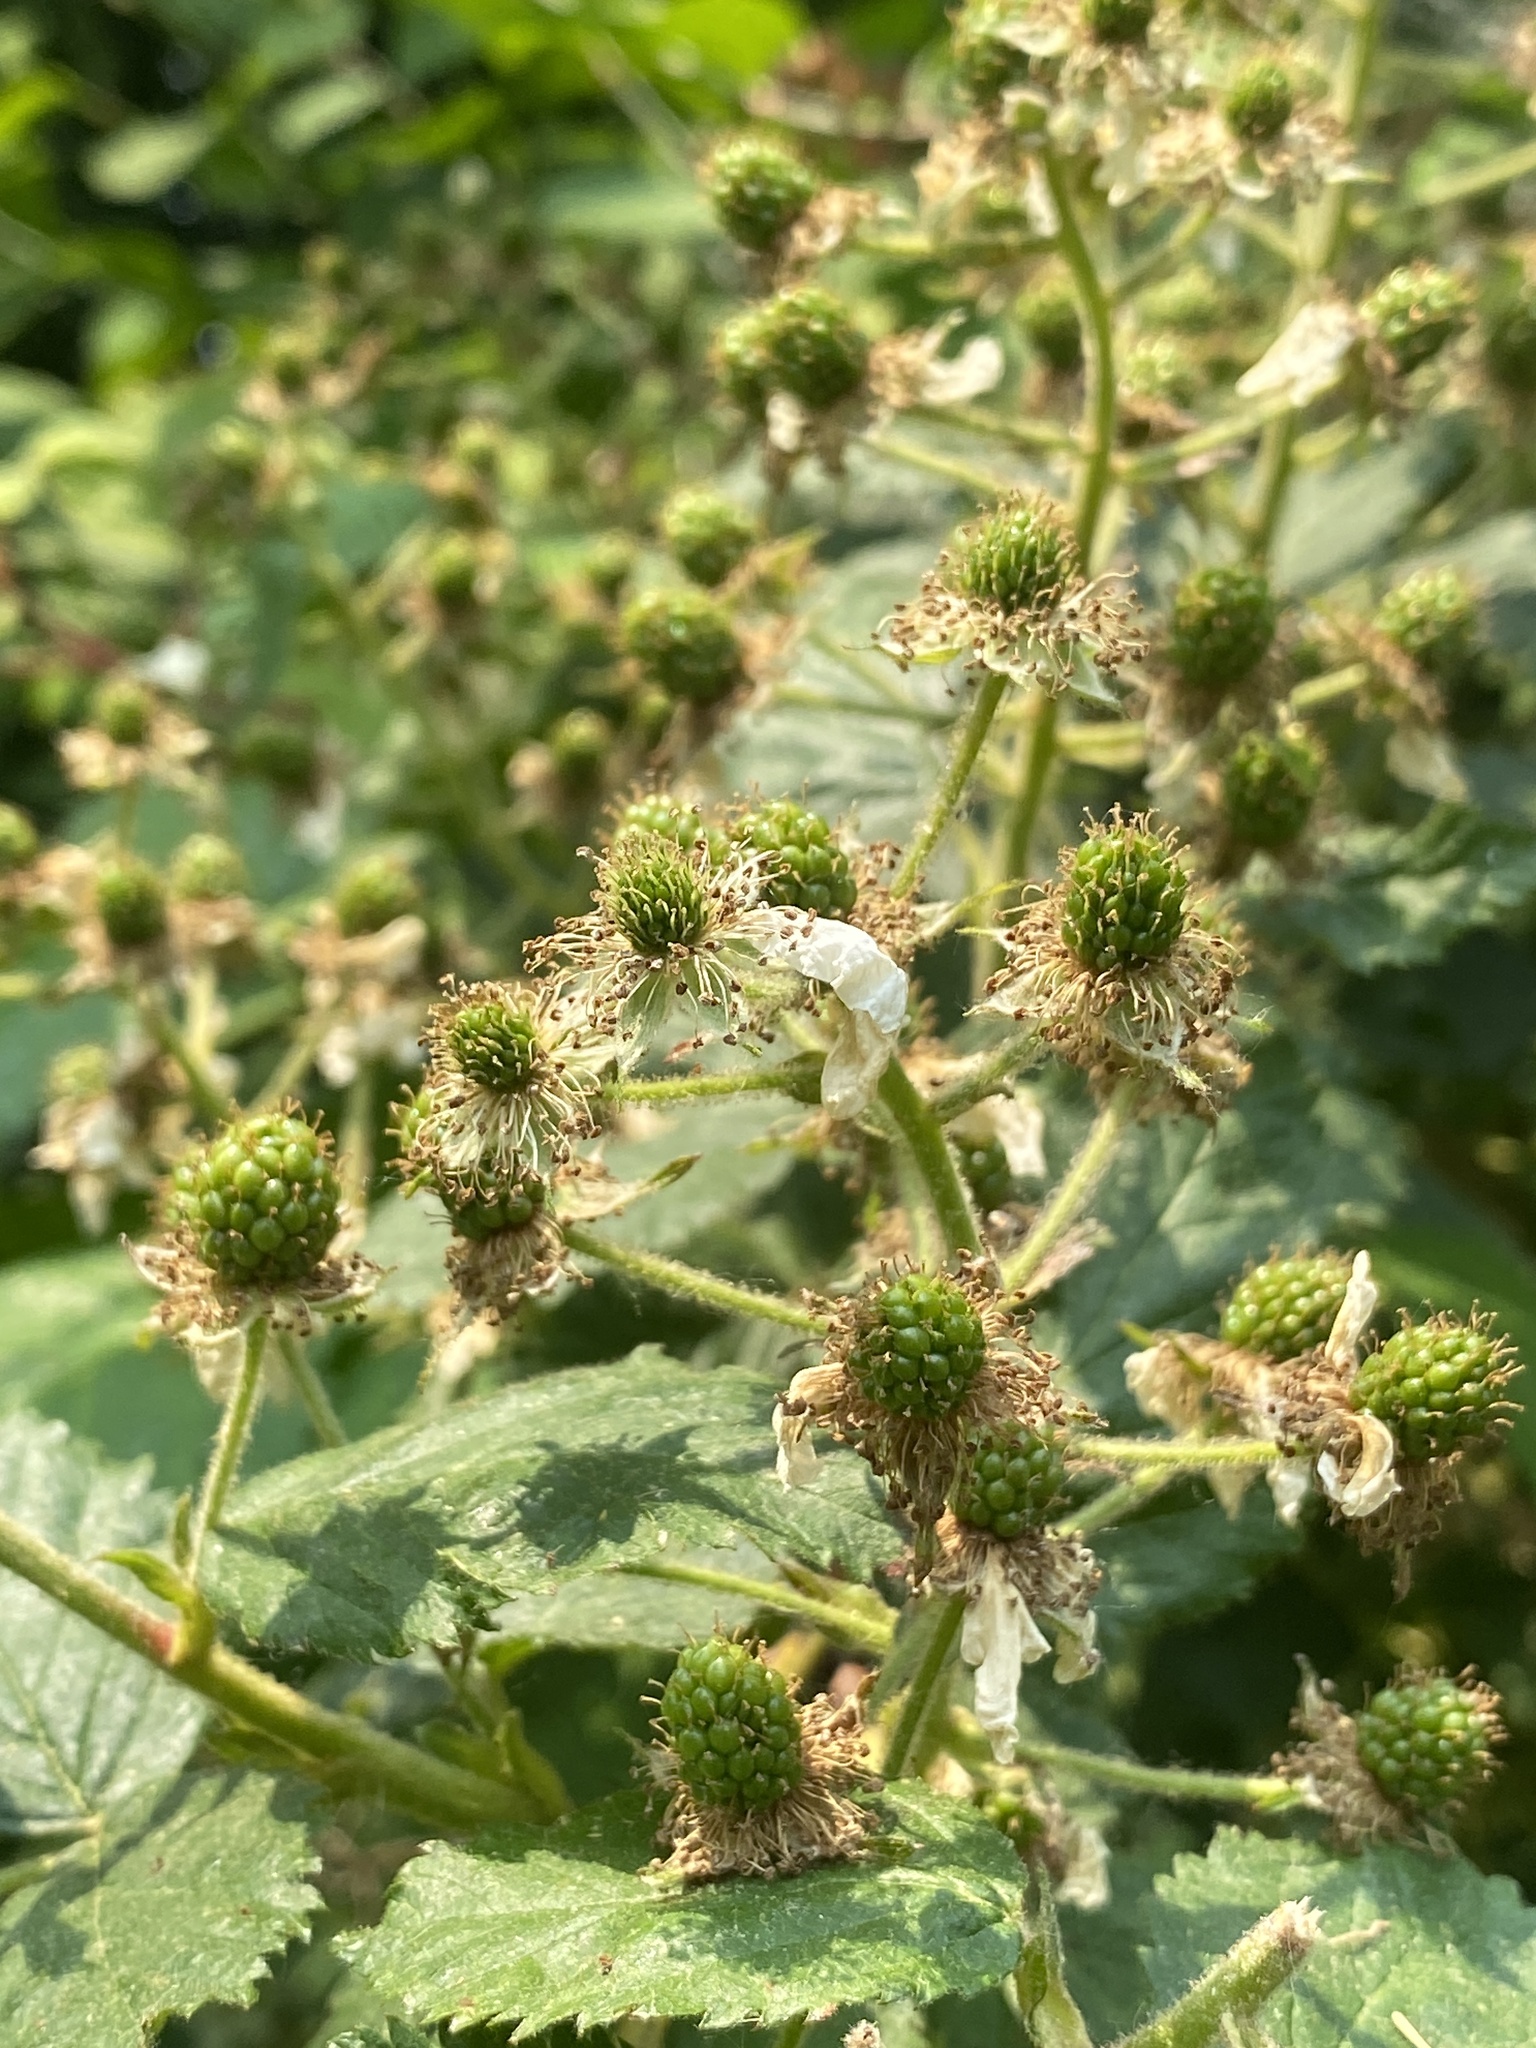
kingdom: Plantae
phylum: Tracheophyta
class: Magnoliopsida
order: Rosales
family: Rosaceae
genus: Rubus
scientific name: Rubus allegheniensis
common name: Allegheny blackberry
